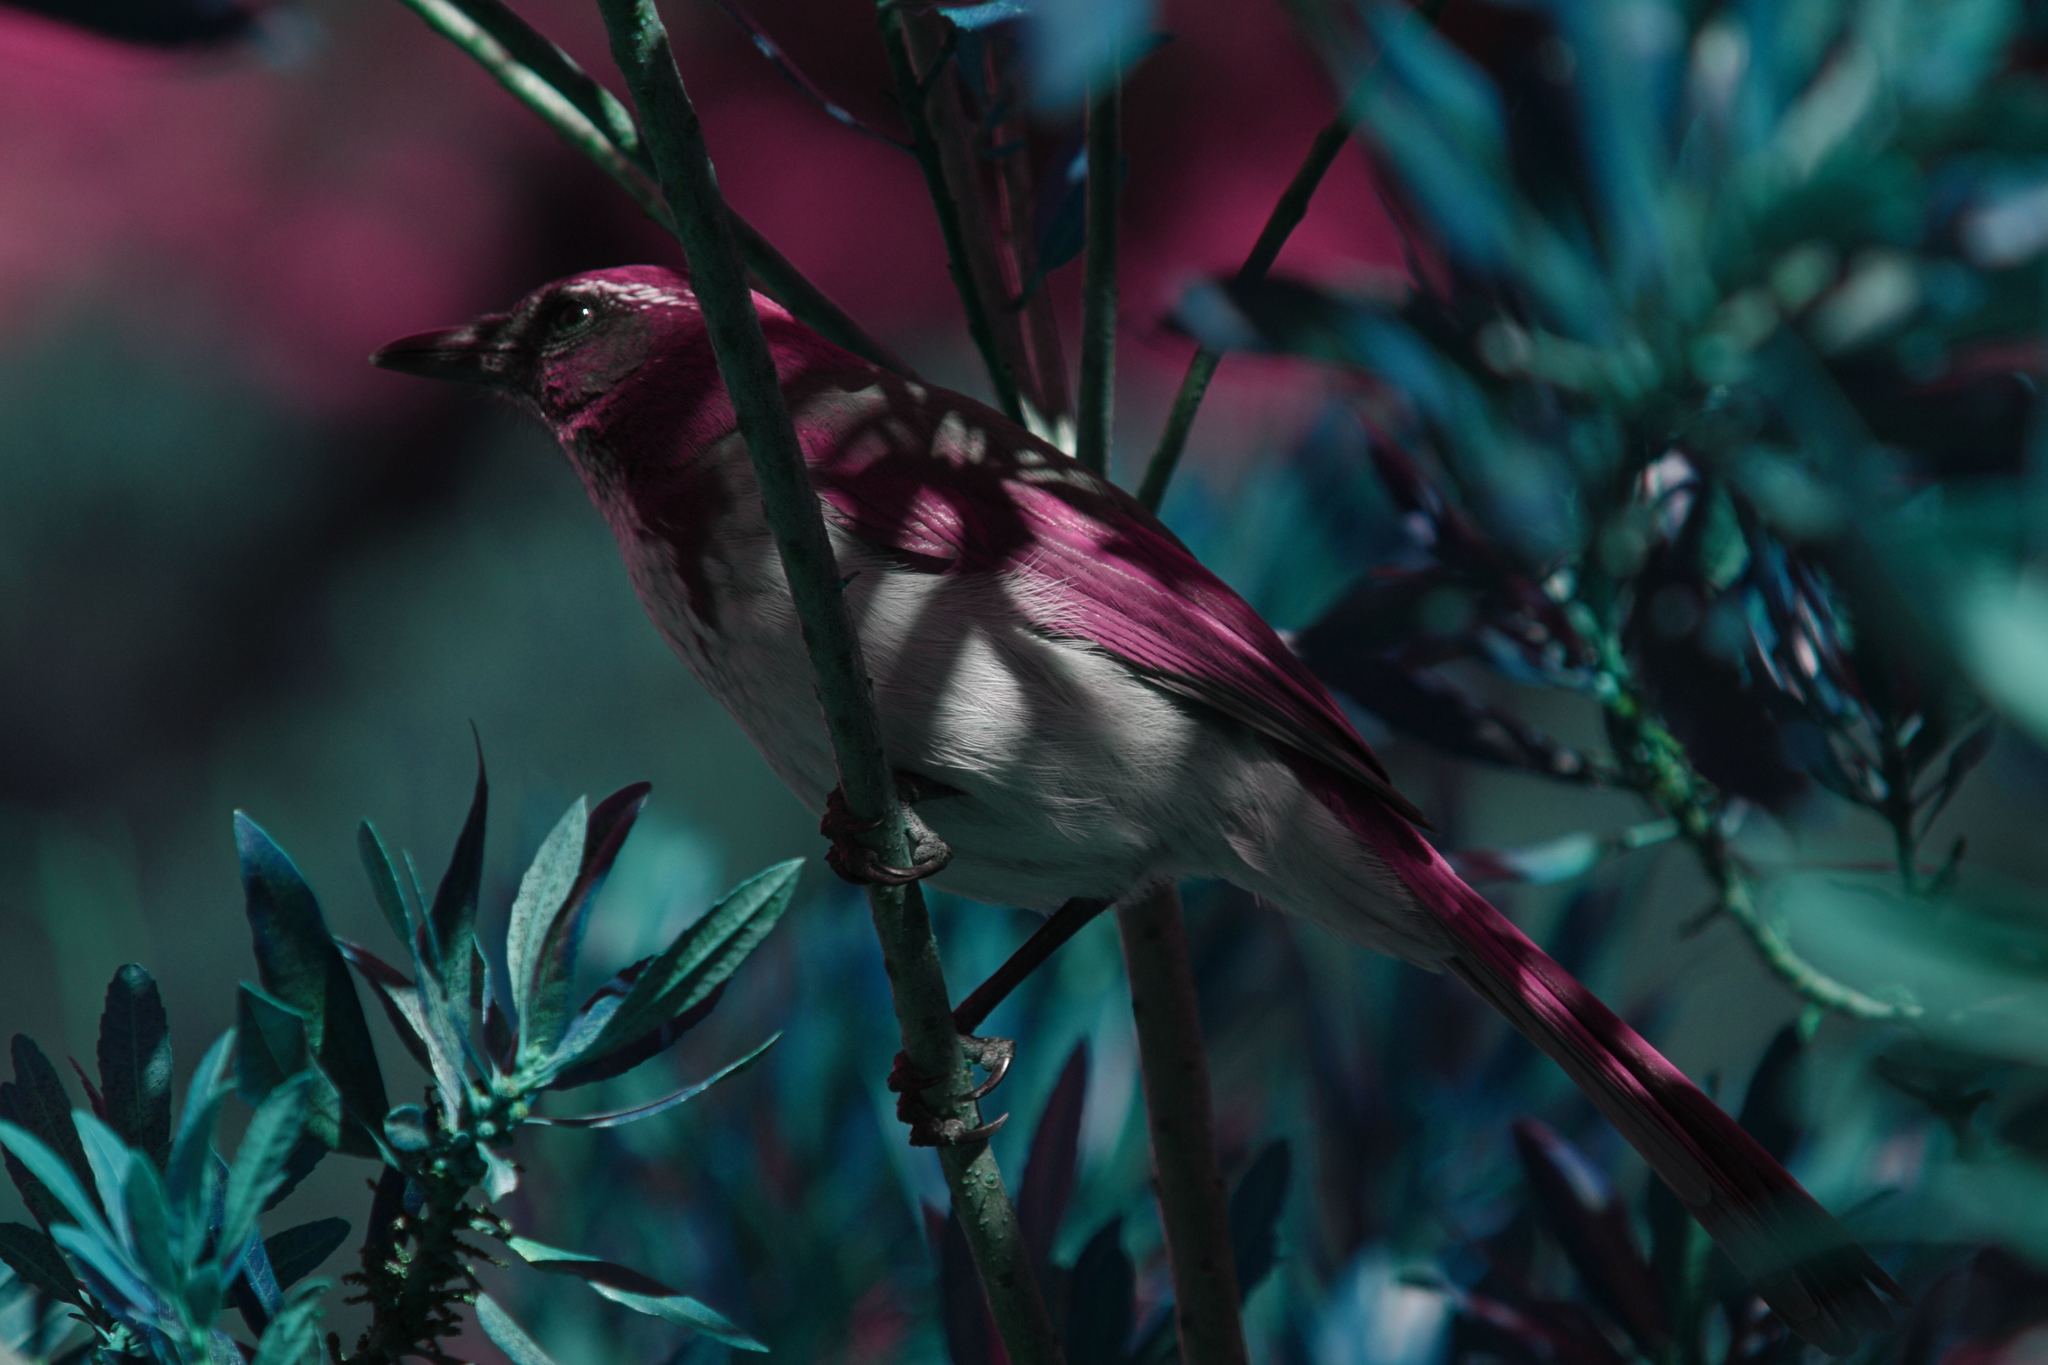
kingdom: Animalia
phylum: Chordata
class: Aves
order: Passeriformes
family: Corvidae
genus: Aphelocoma
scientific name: Aphelocoma californica
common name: California scrub-jay
